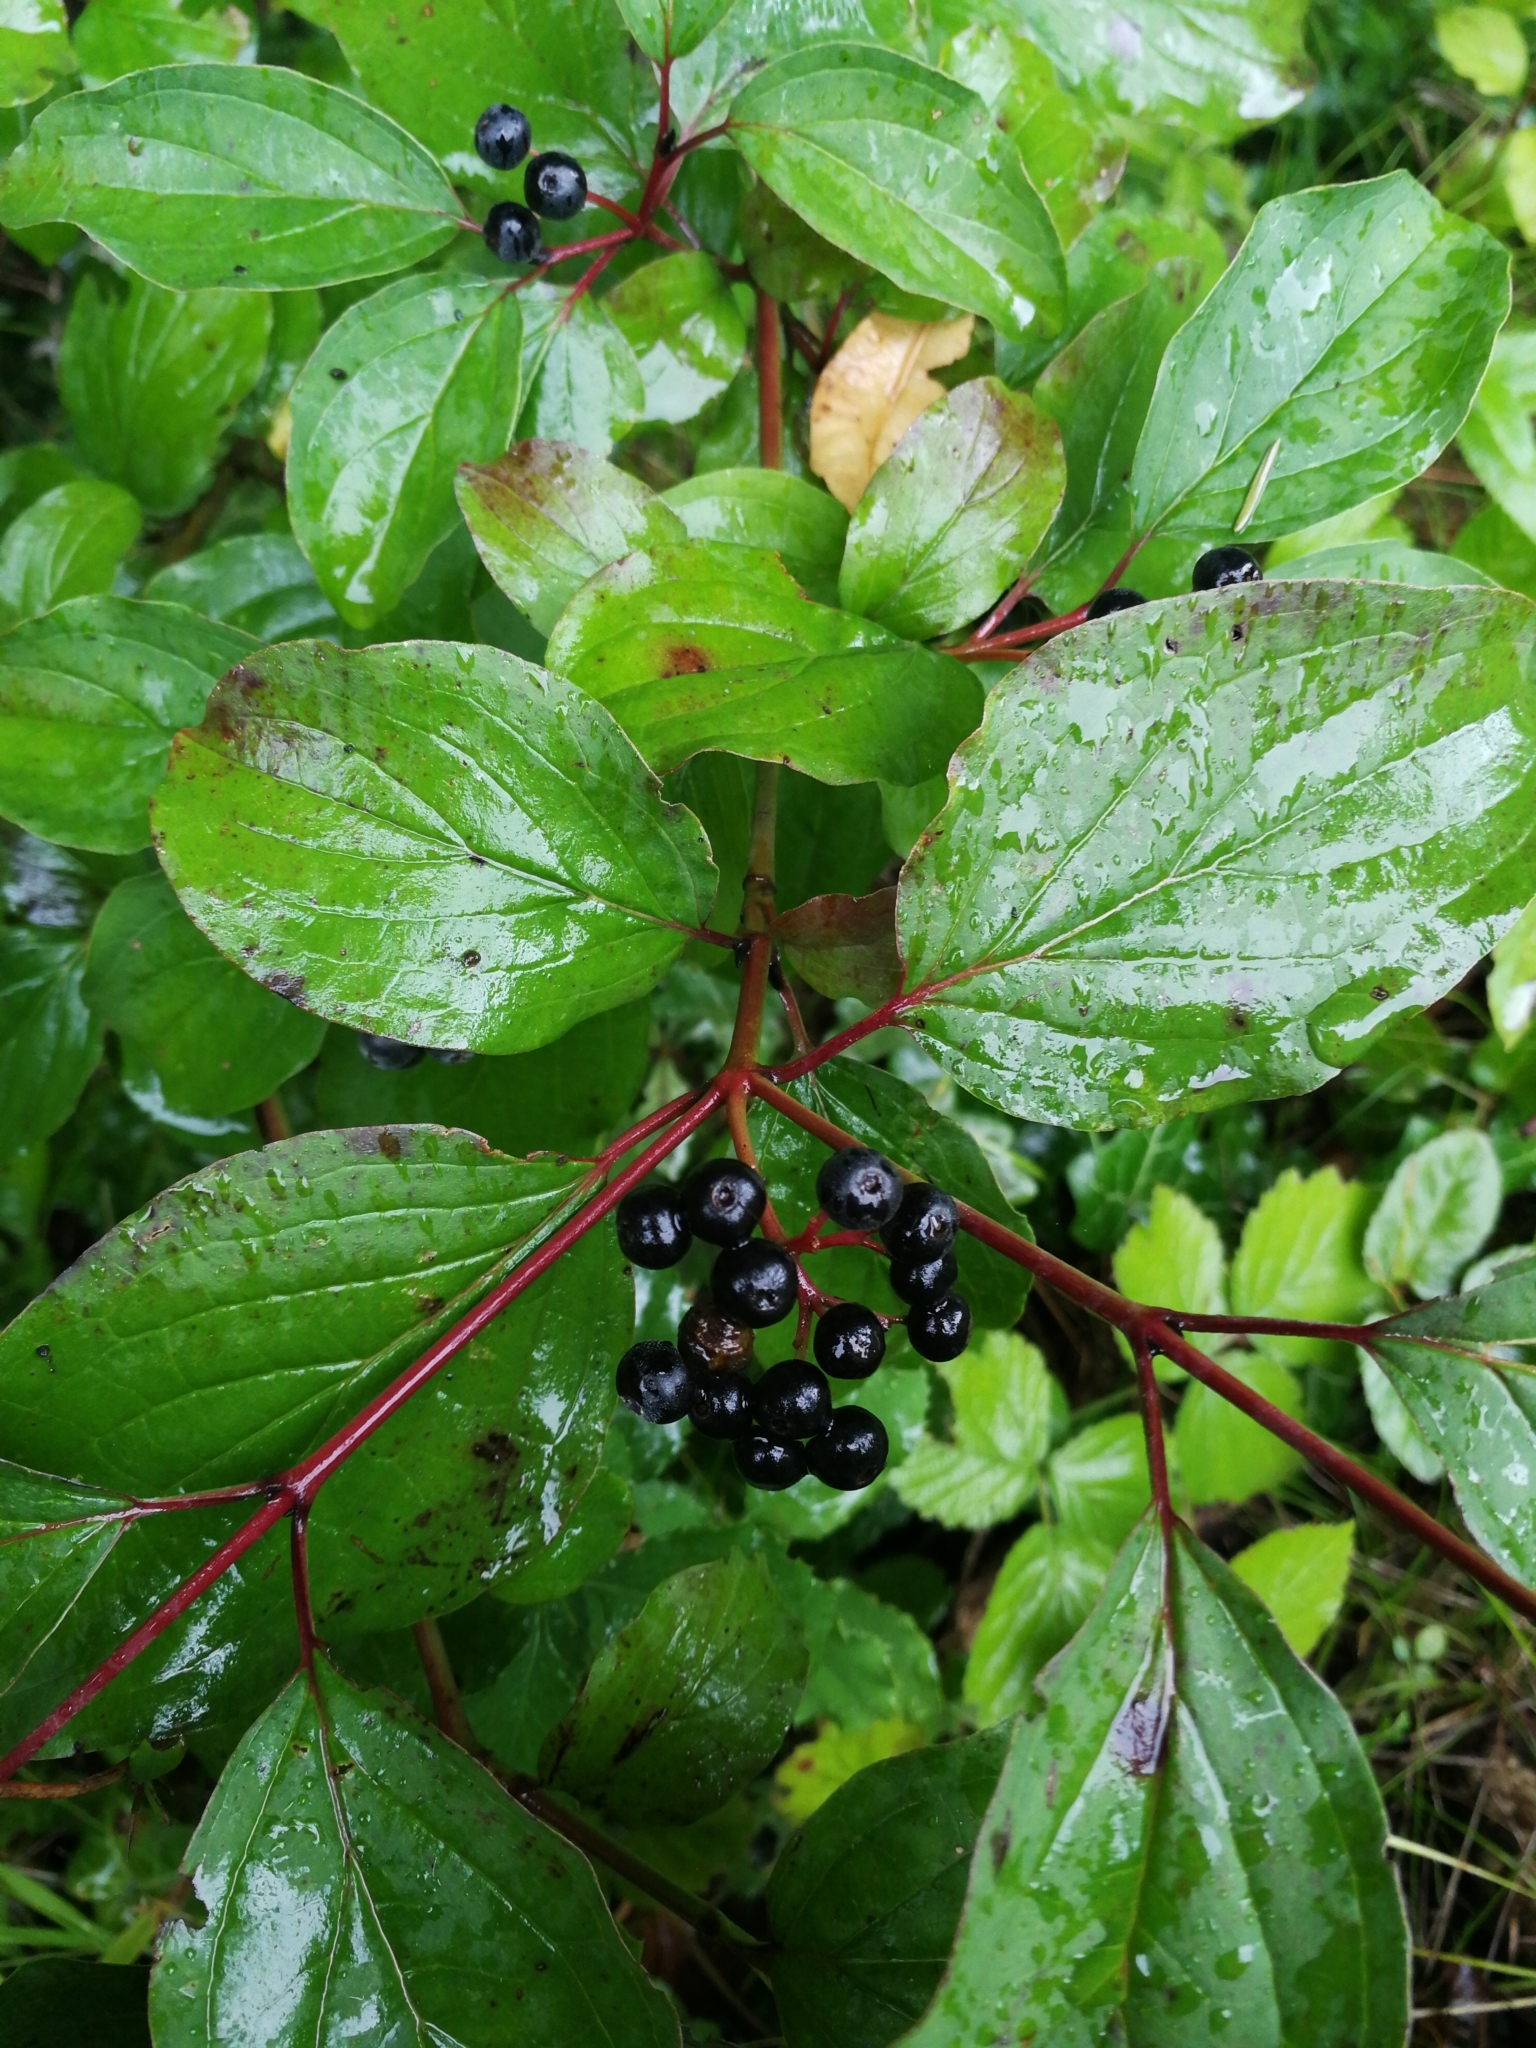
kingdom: Plantae
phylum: Tracheophyta
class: Magnoliopsida
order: Cornales
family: Cornaceae
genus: Cornus
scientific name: Cornus sanguinea
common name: Dogwood
